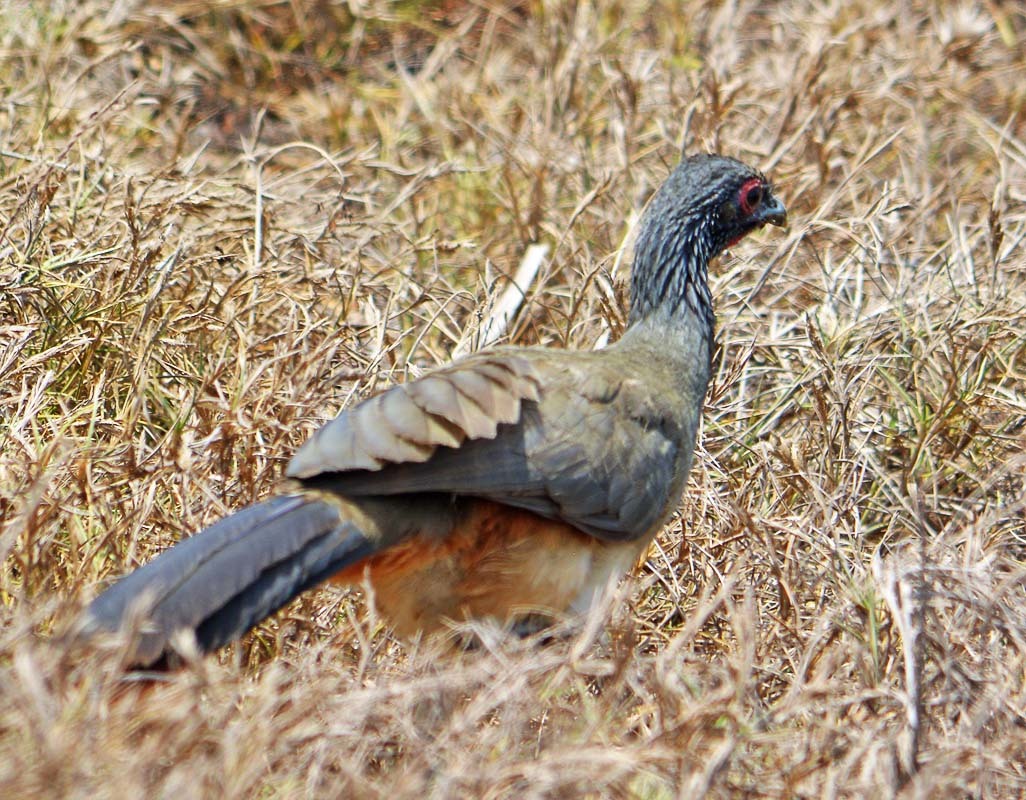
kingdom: Animalia
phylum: Chordata
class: Aves
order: Galliformes
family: Cracidae
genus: Ortalis
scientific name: Ortalis poliocephala
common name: West mexican chachalaca
